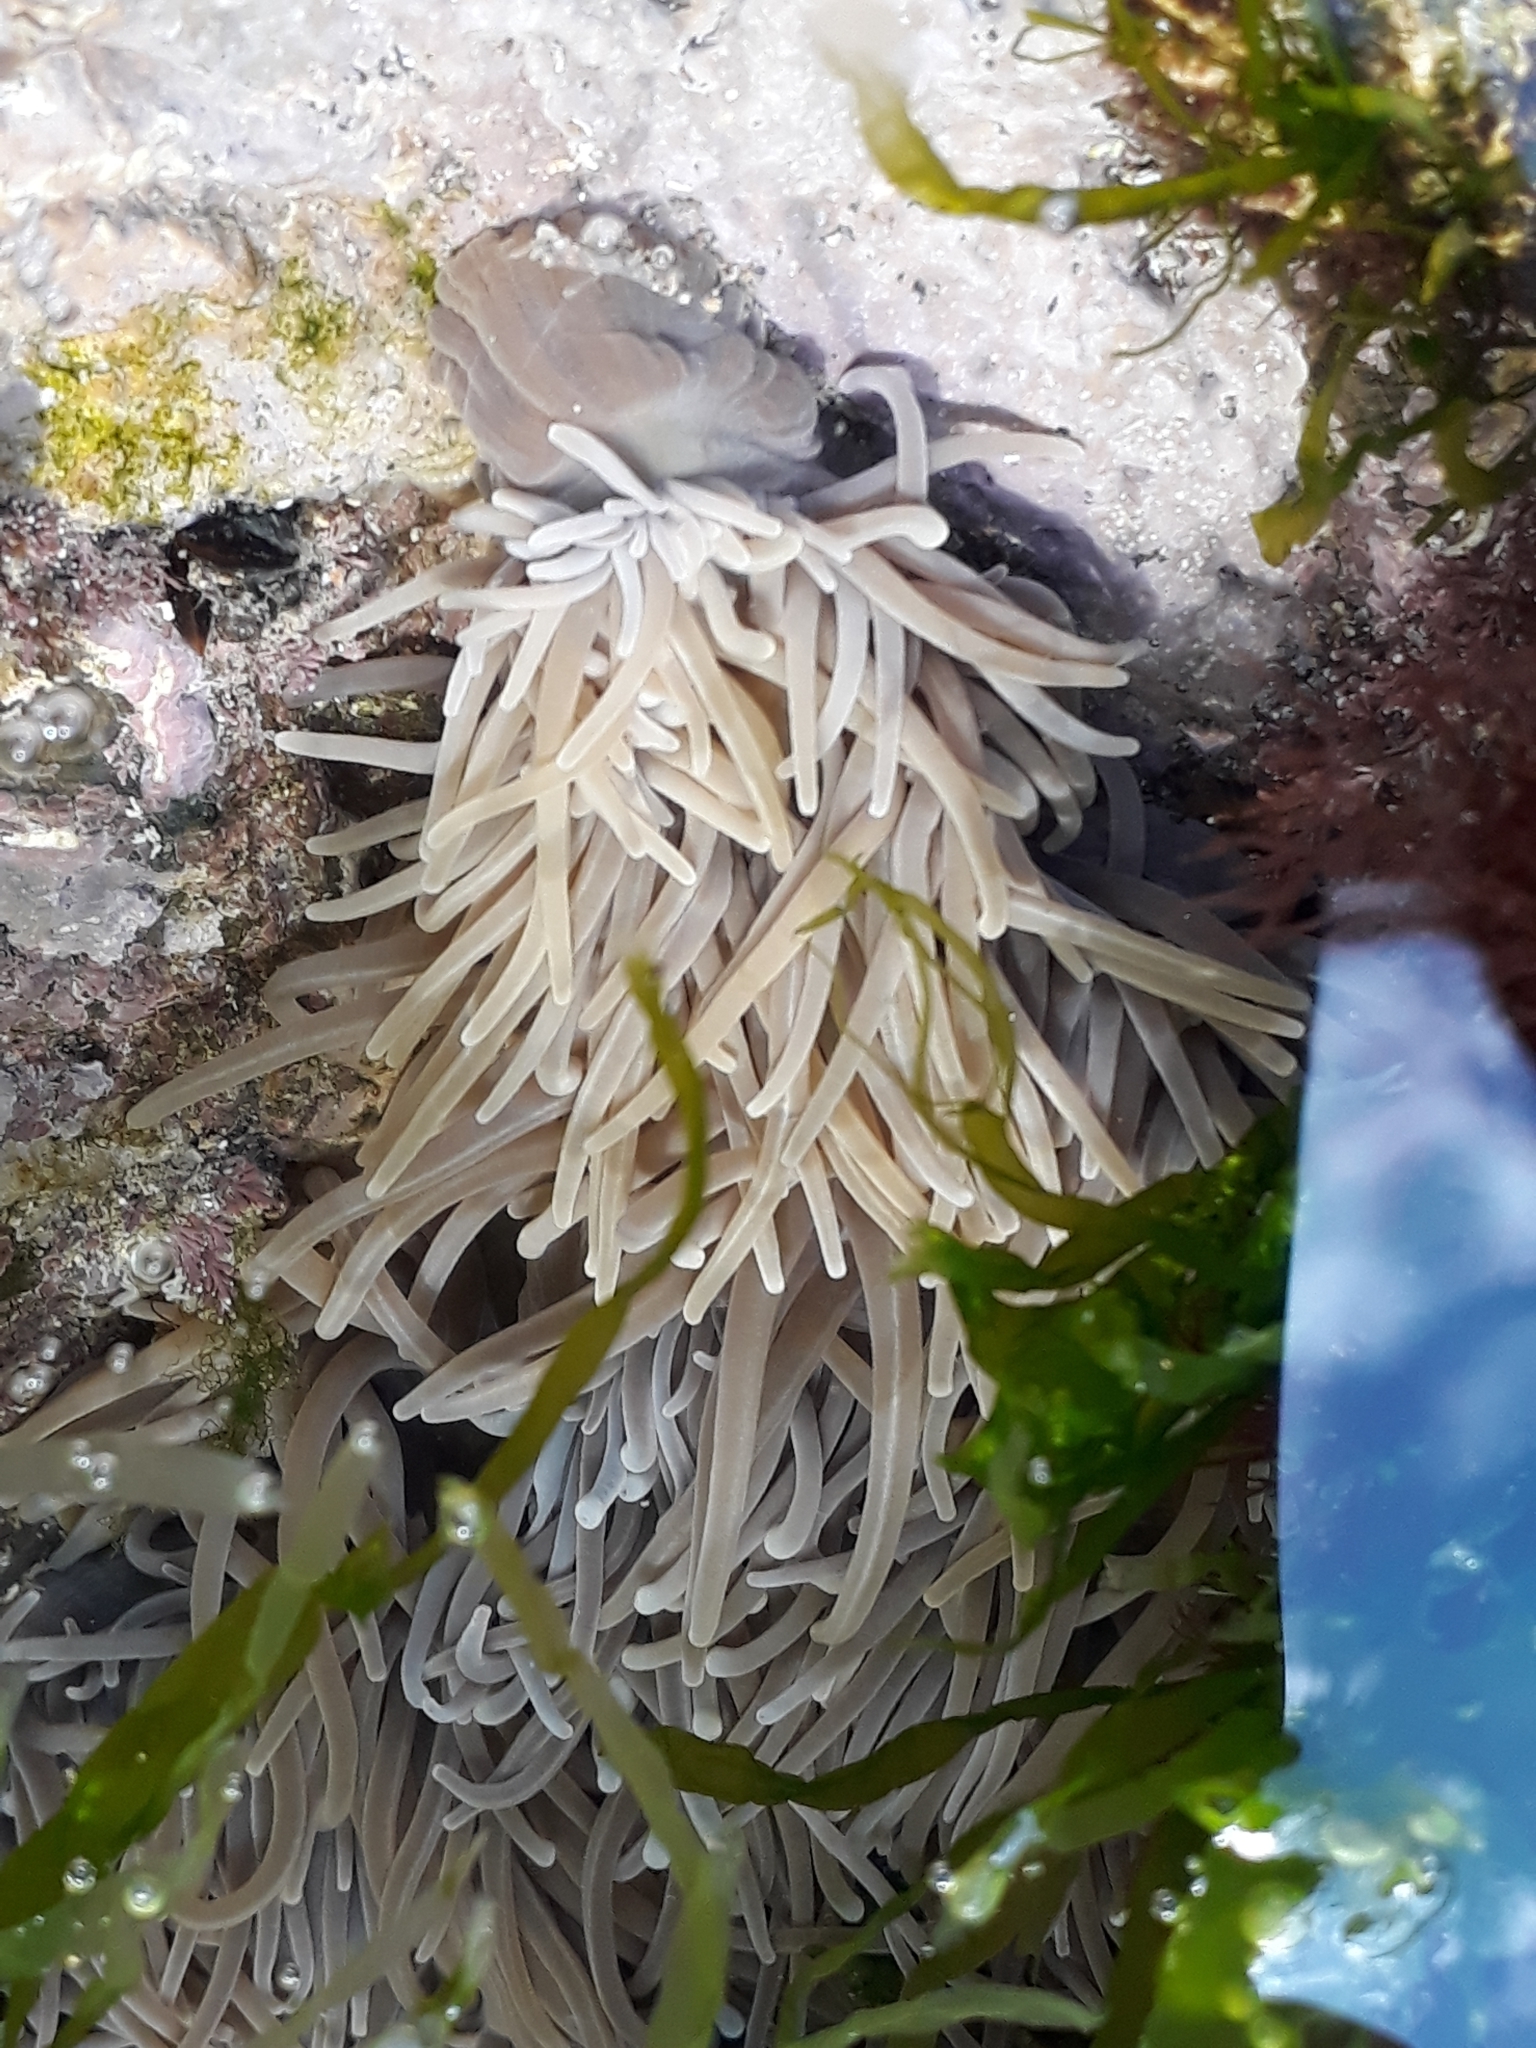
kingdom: Animalia
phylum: Cnidaria
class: Anthozoa
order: Actiniaria
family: Actiniidae
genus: Anemonia
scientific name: Anemonia viridis
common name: Snakelocks anemone
